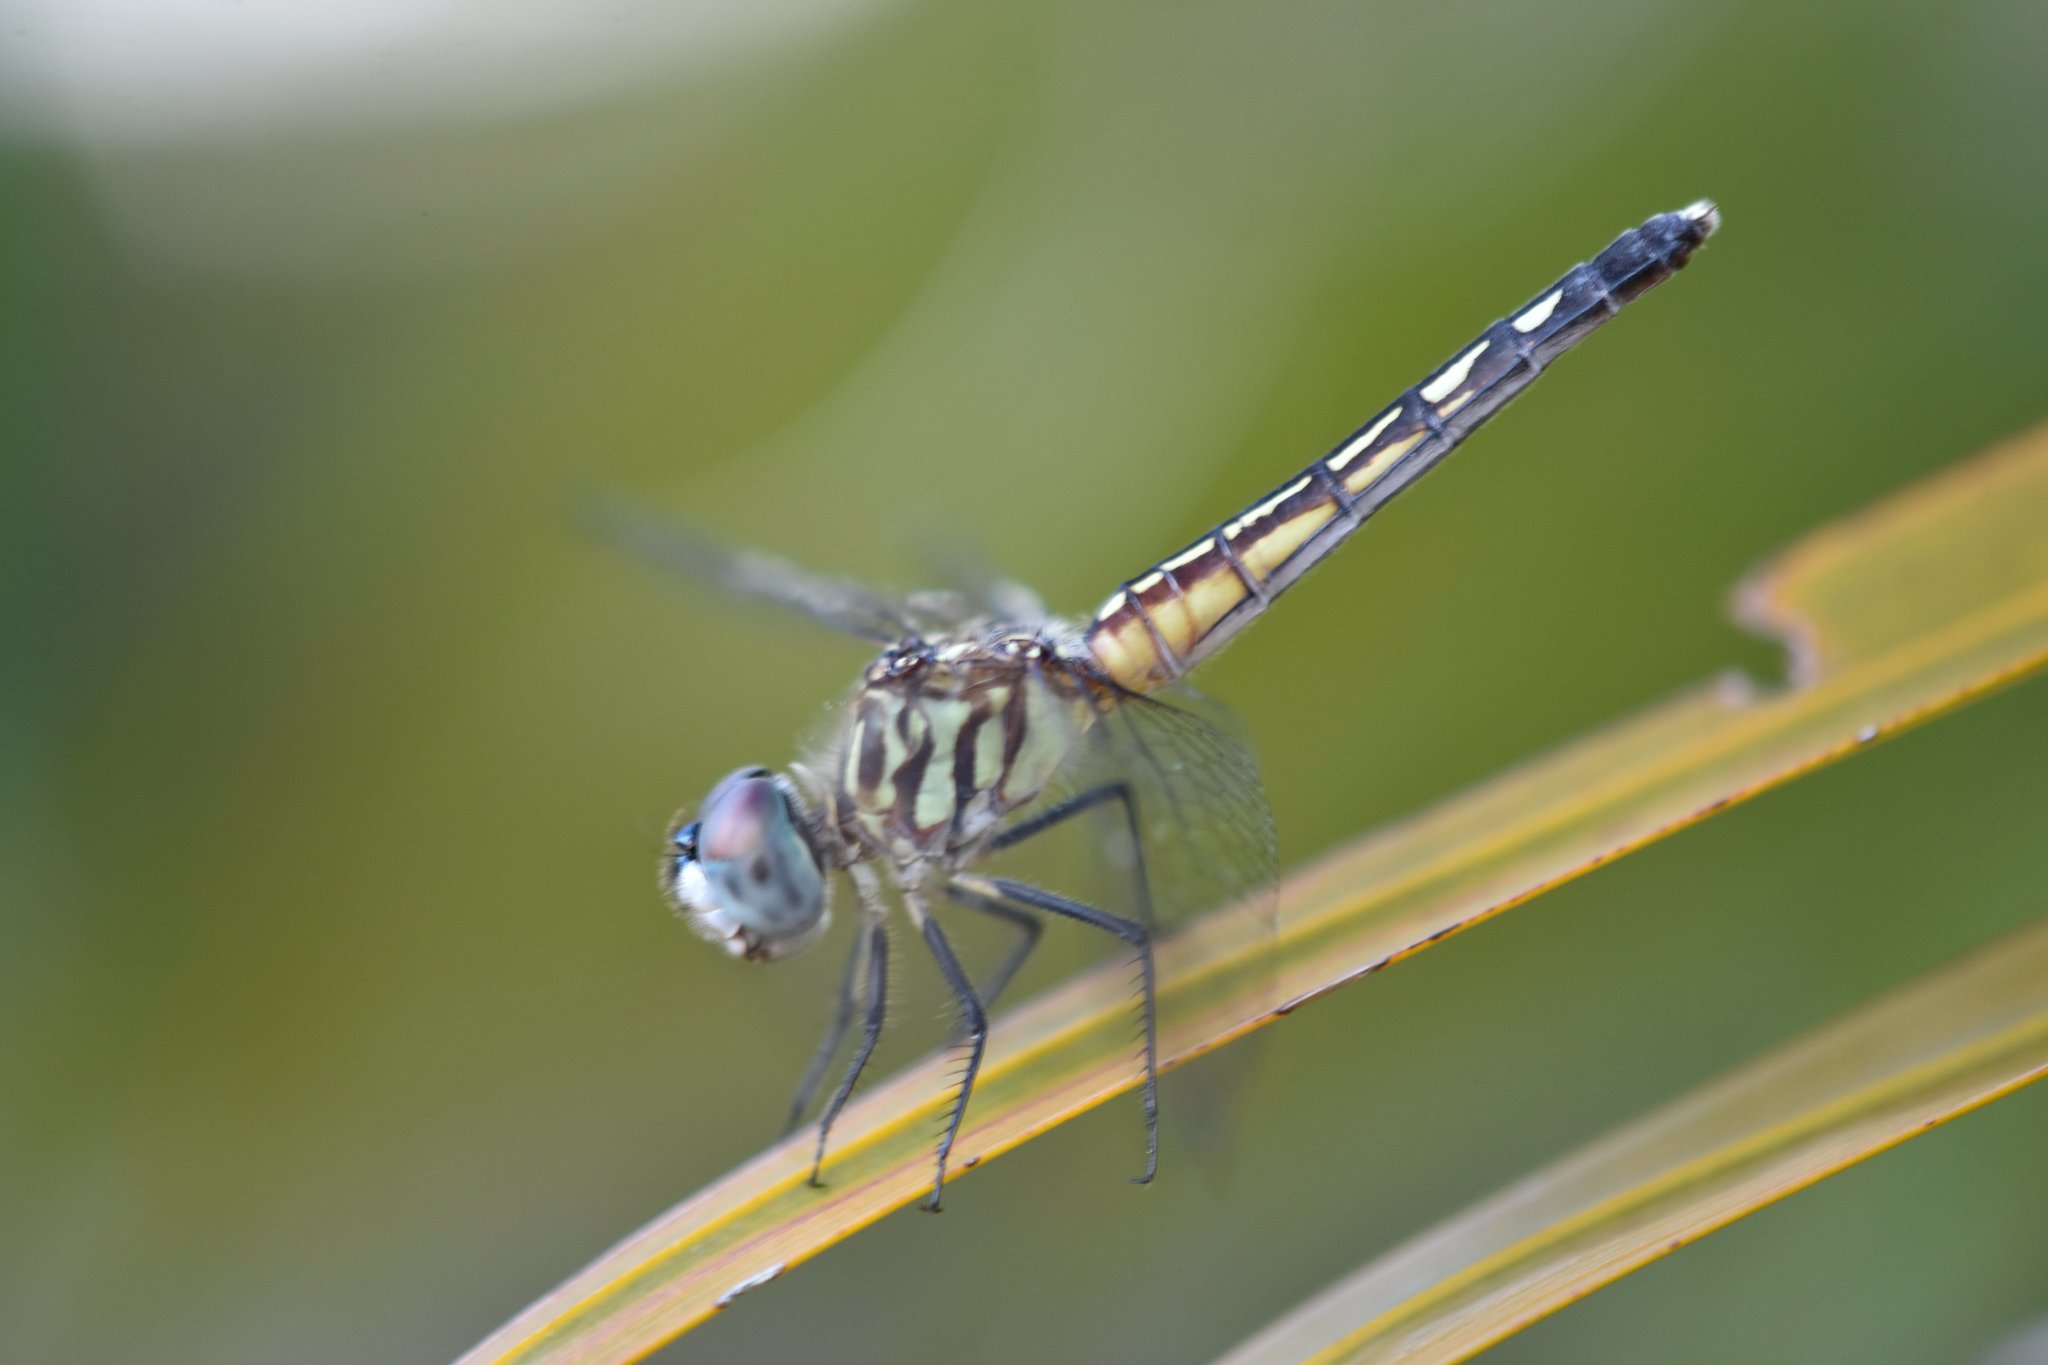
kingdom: Animalia
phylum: Arthropoda
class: Insecta
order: Odonata
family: Libellulidae
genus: Pachydiplax
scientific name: Pachydiplax longipennis
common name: Blue dasher
